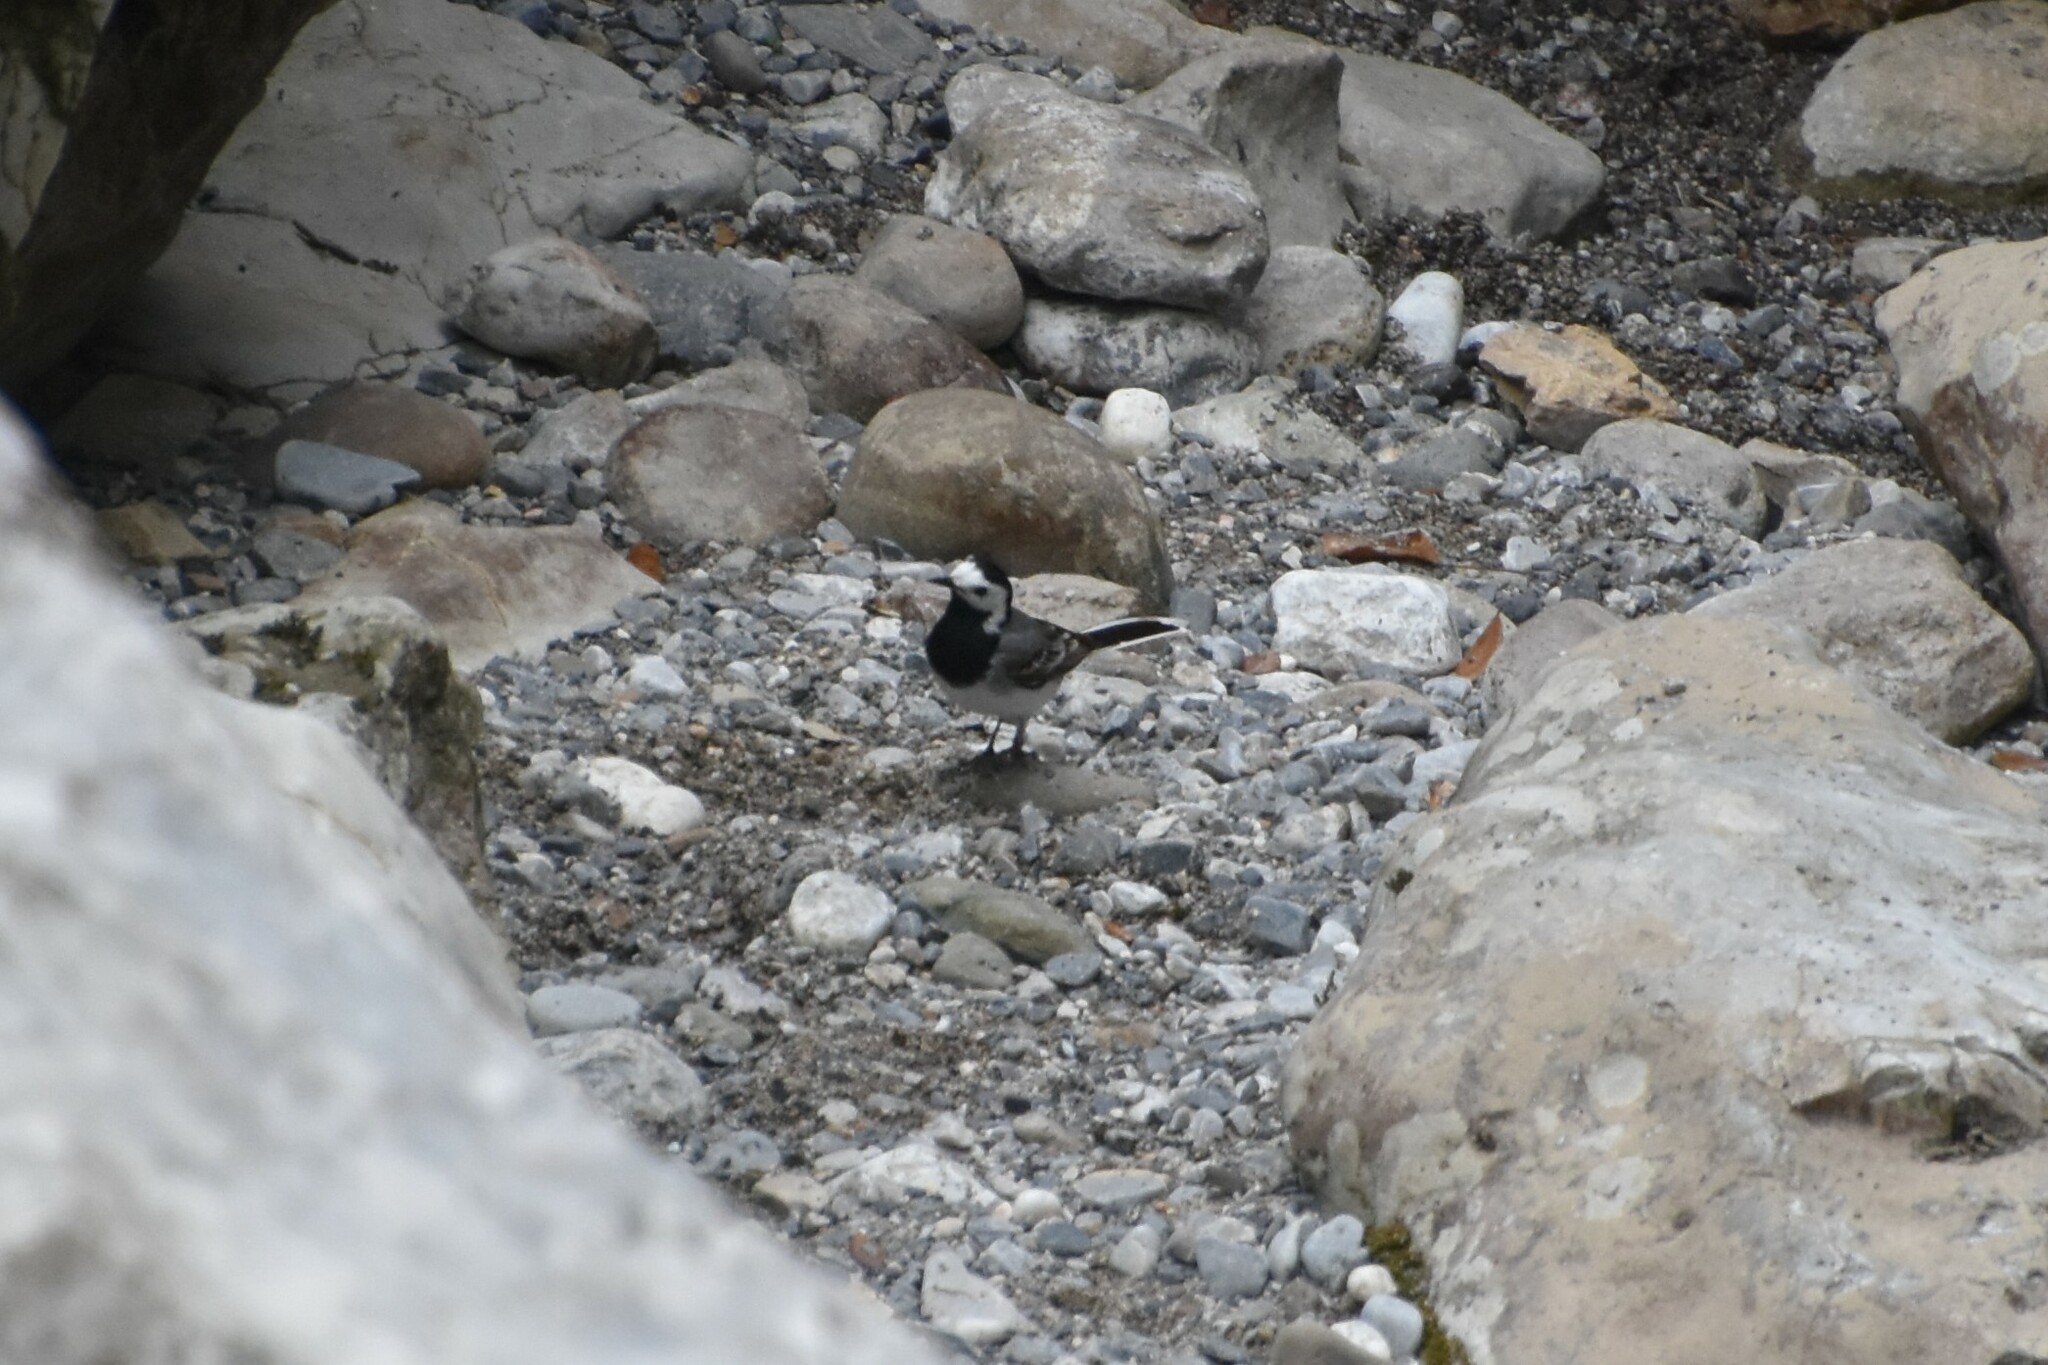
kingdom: Animalia
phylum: Chordata
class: Aves
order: Passeriformes
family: Motacillidae
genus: Motacilla
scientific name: Motacilla alba
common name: White wagtail
